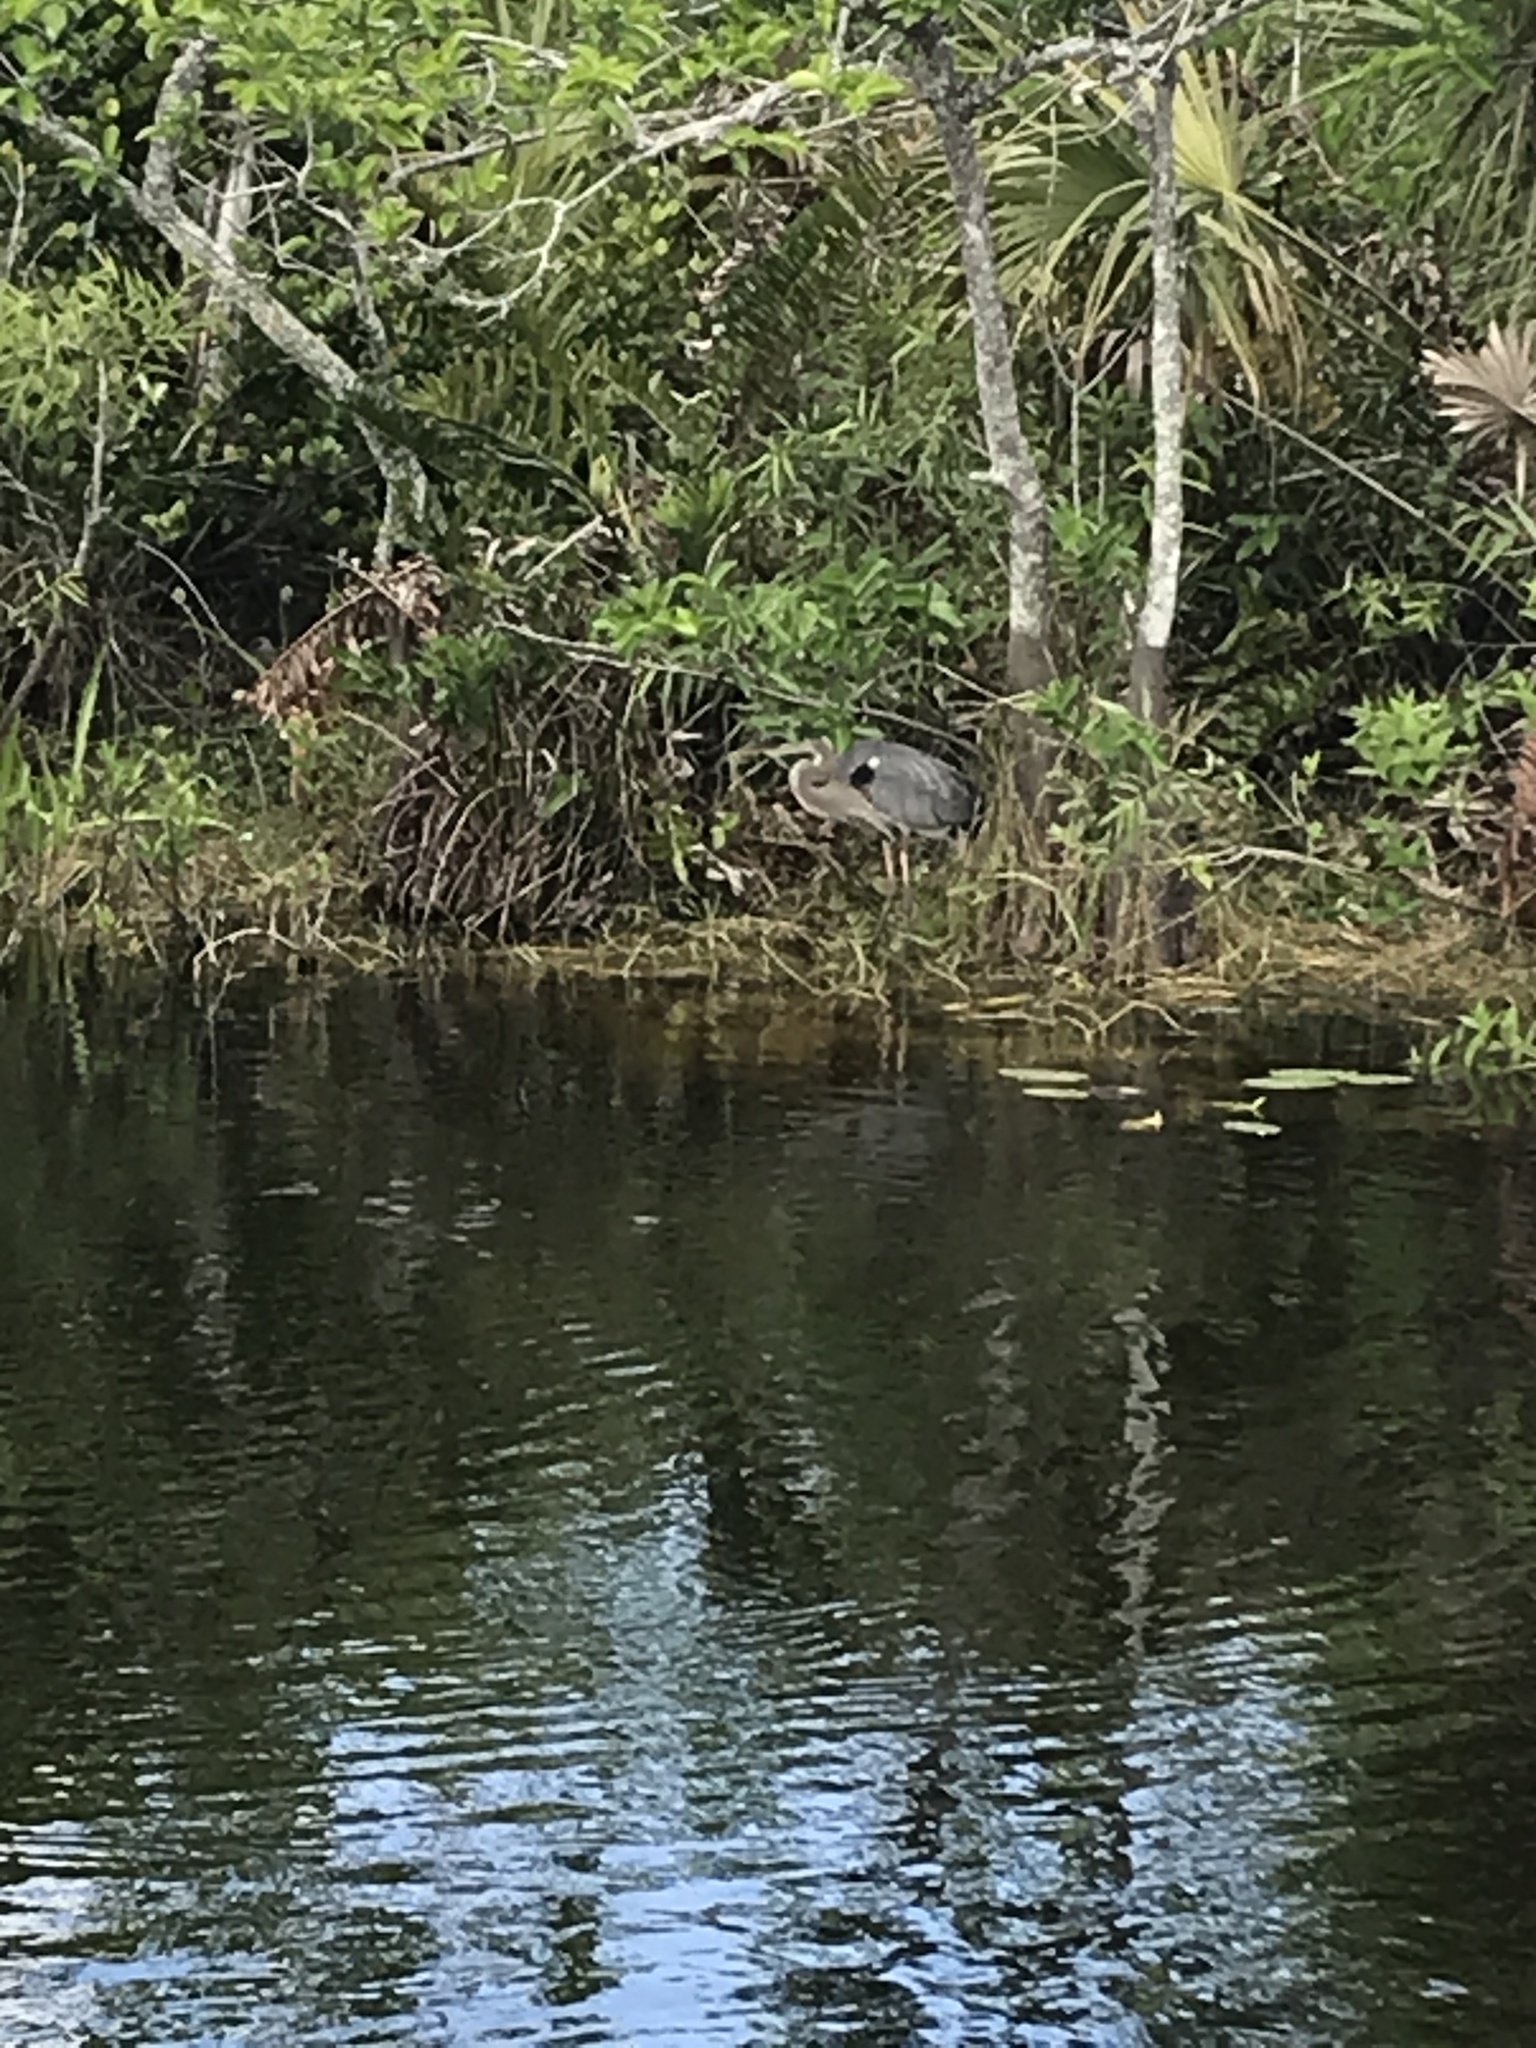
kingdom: Animalia
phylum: Chordata
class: Aves
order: Pelecaniformes
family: Ardeidae
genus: Ardea
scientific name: Ardea herodias
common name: Great blue heron
